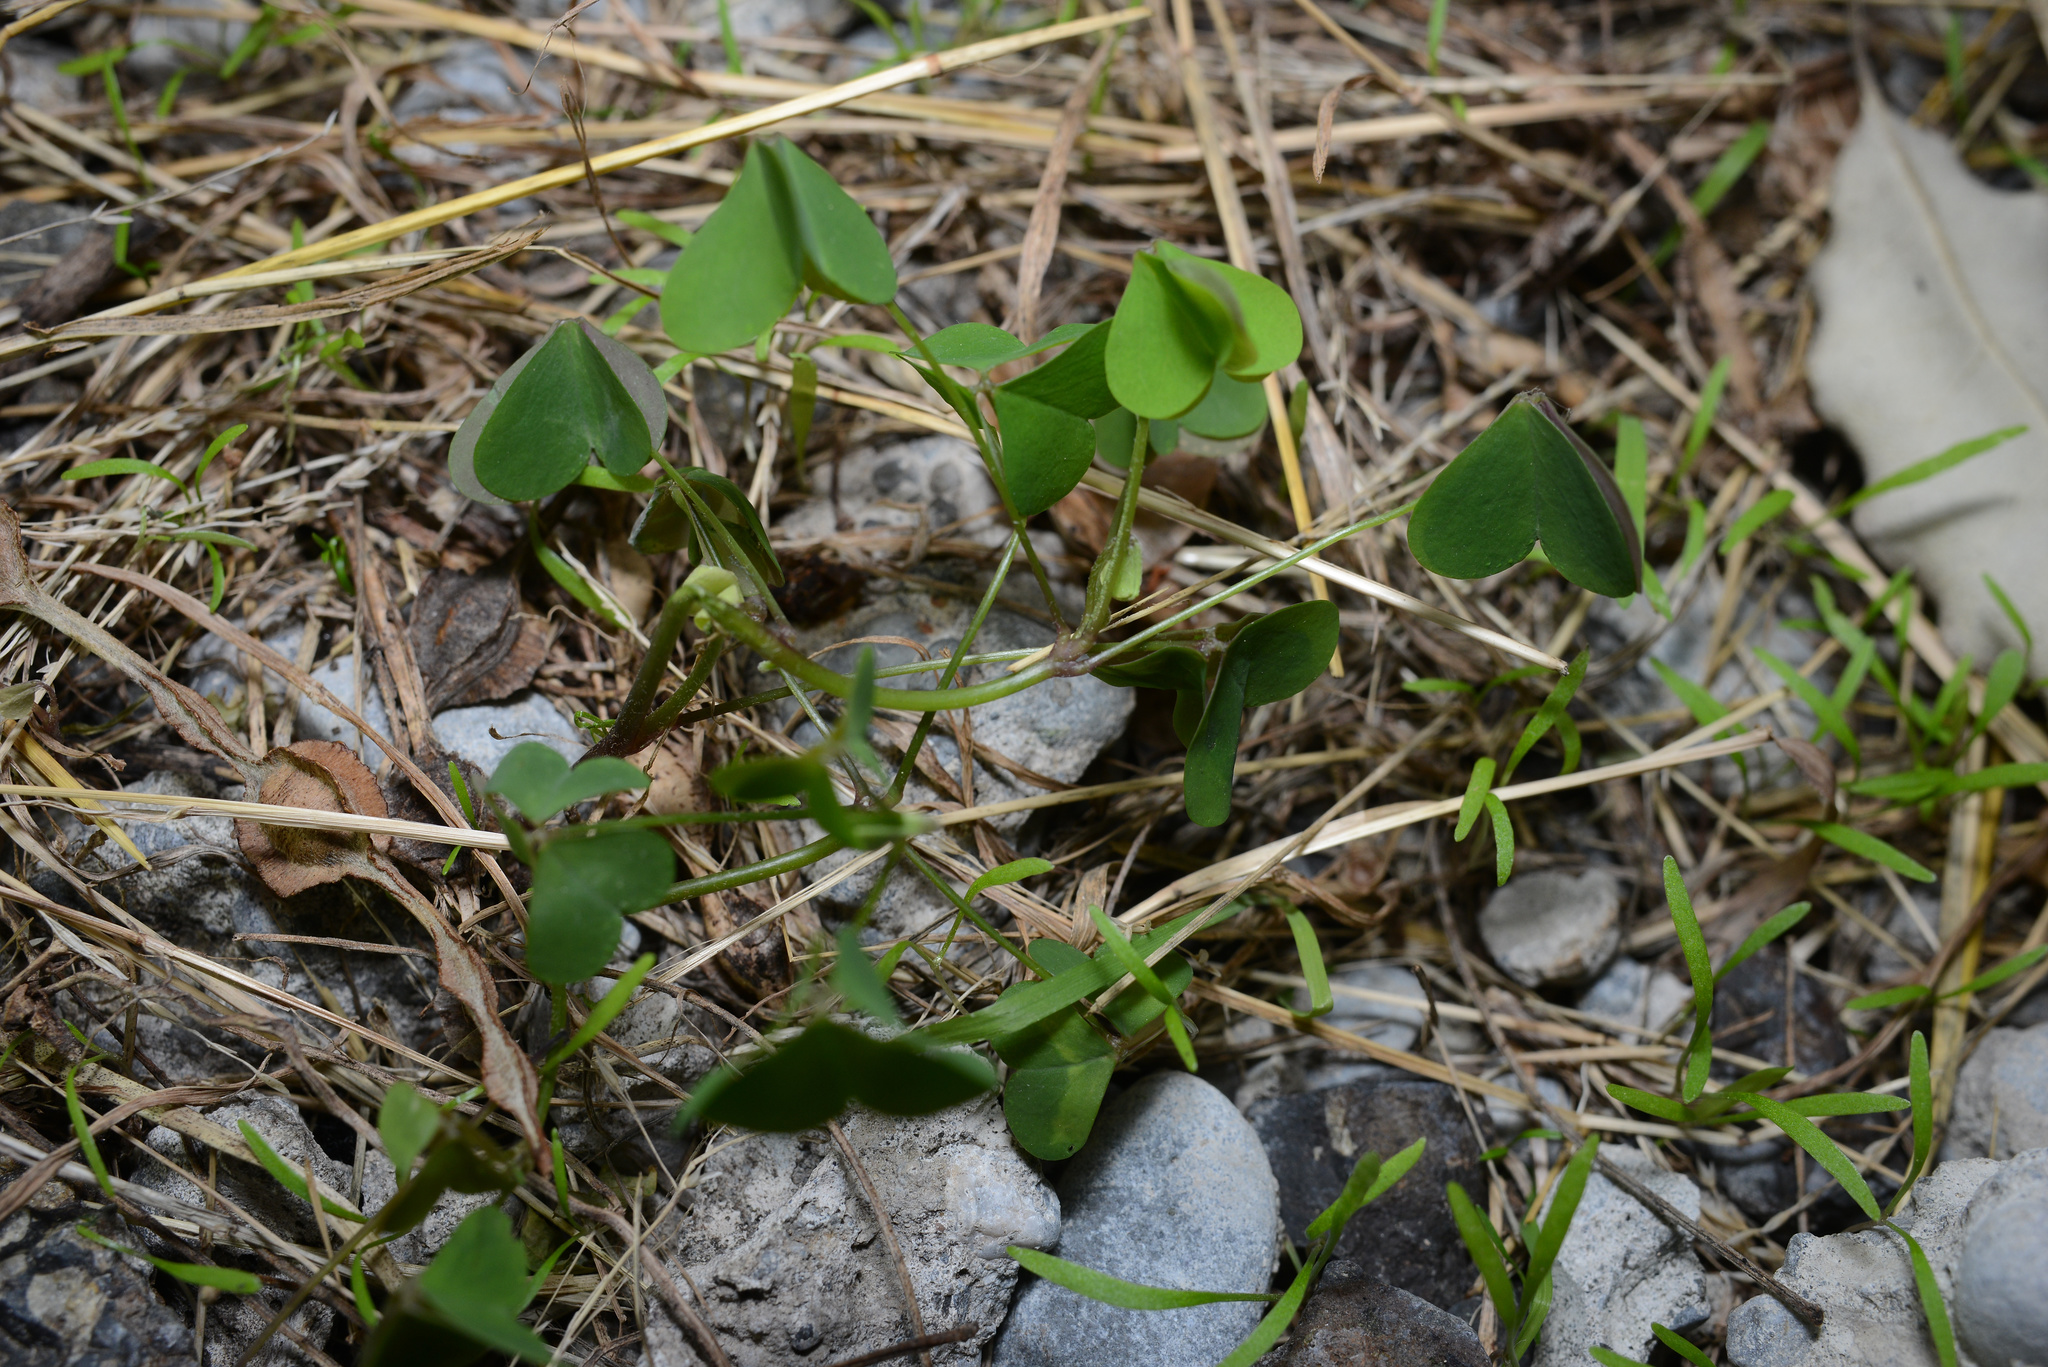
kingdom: Plantae
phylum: Tracheophyta
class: Magnoliopsida
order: Oxalidales
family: Oxalidaceae
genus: Oxalis
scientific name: Oxalis latifolia
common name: Garden pink-sorrel
